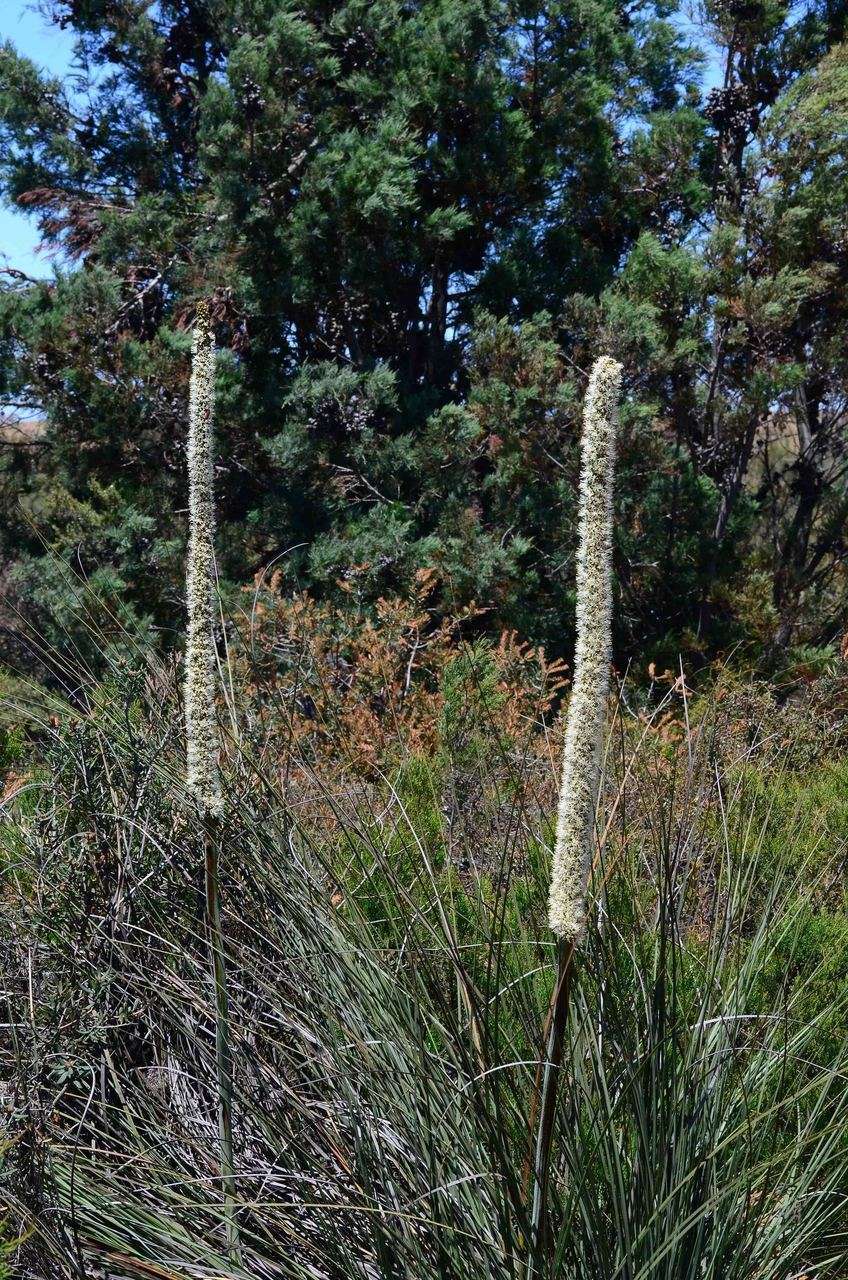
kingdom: Plantae
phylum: Tracheophyta
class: Liliopsida
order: Asparagales
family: Asphodelaceae
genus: Xanthorrhoea
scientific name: Xanthorrhoea caespitosa
